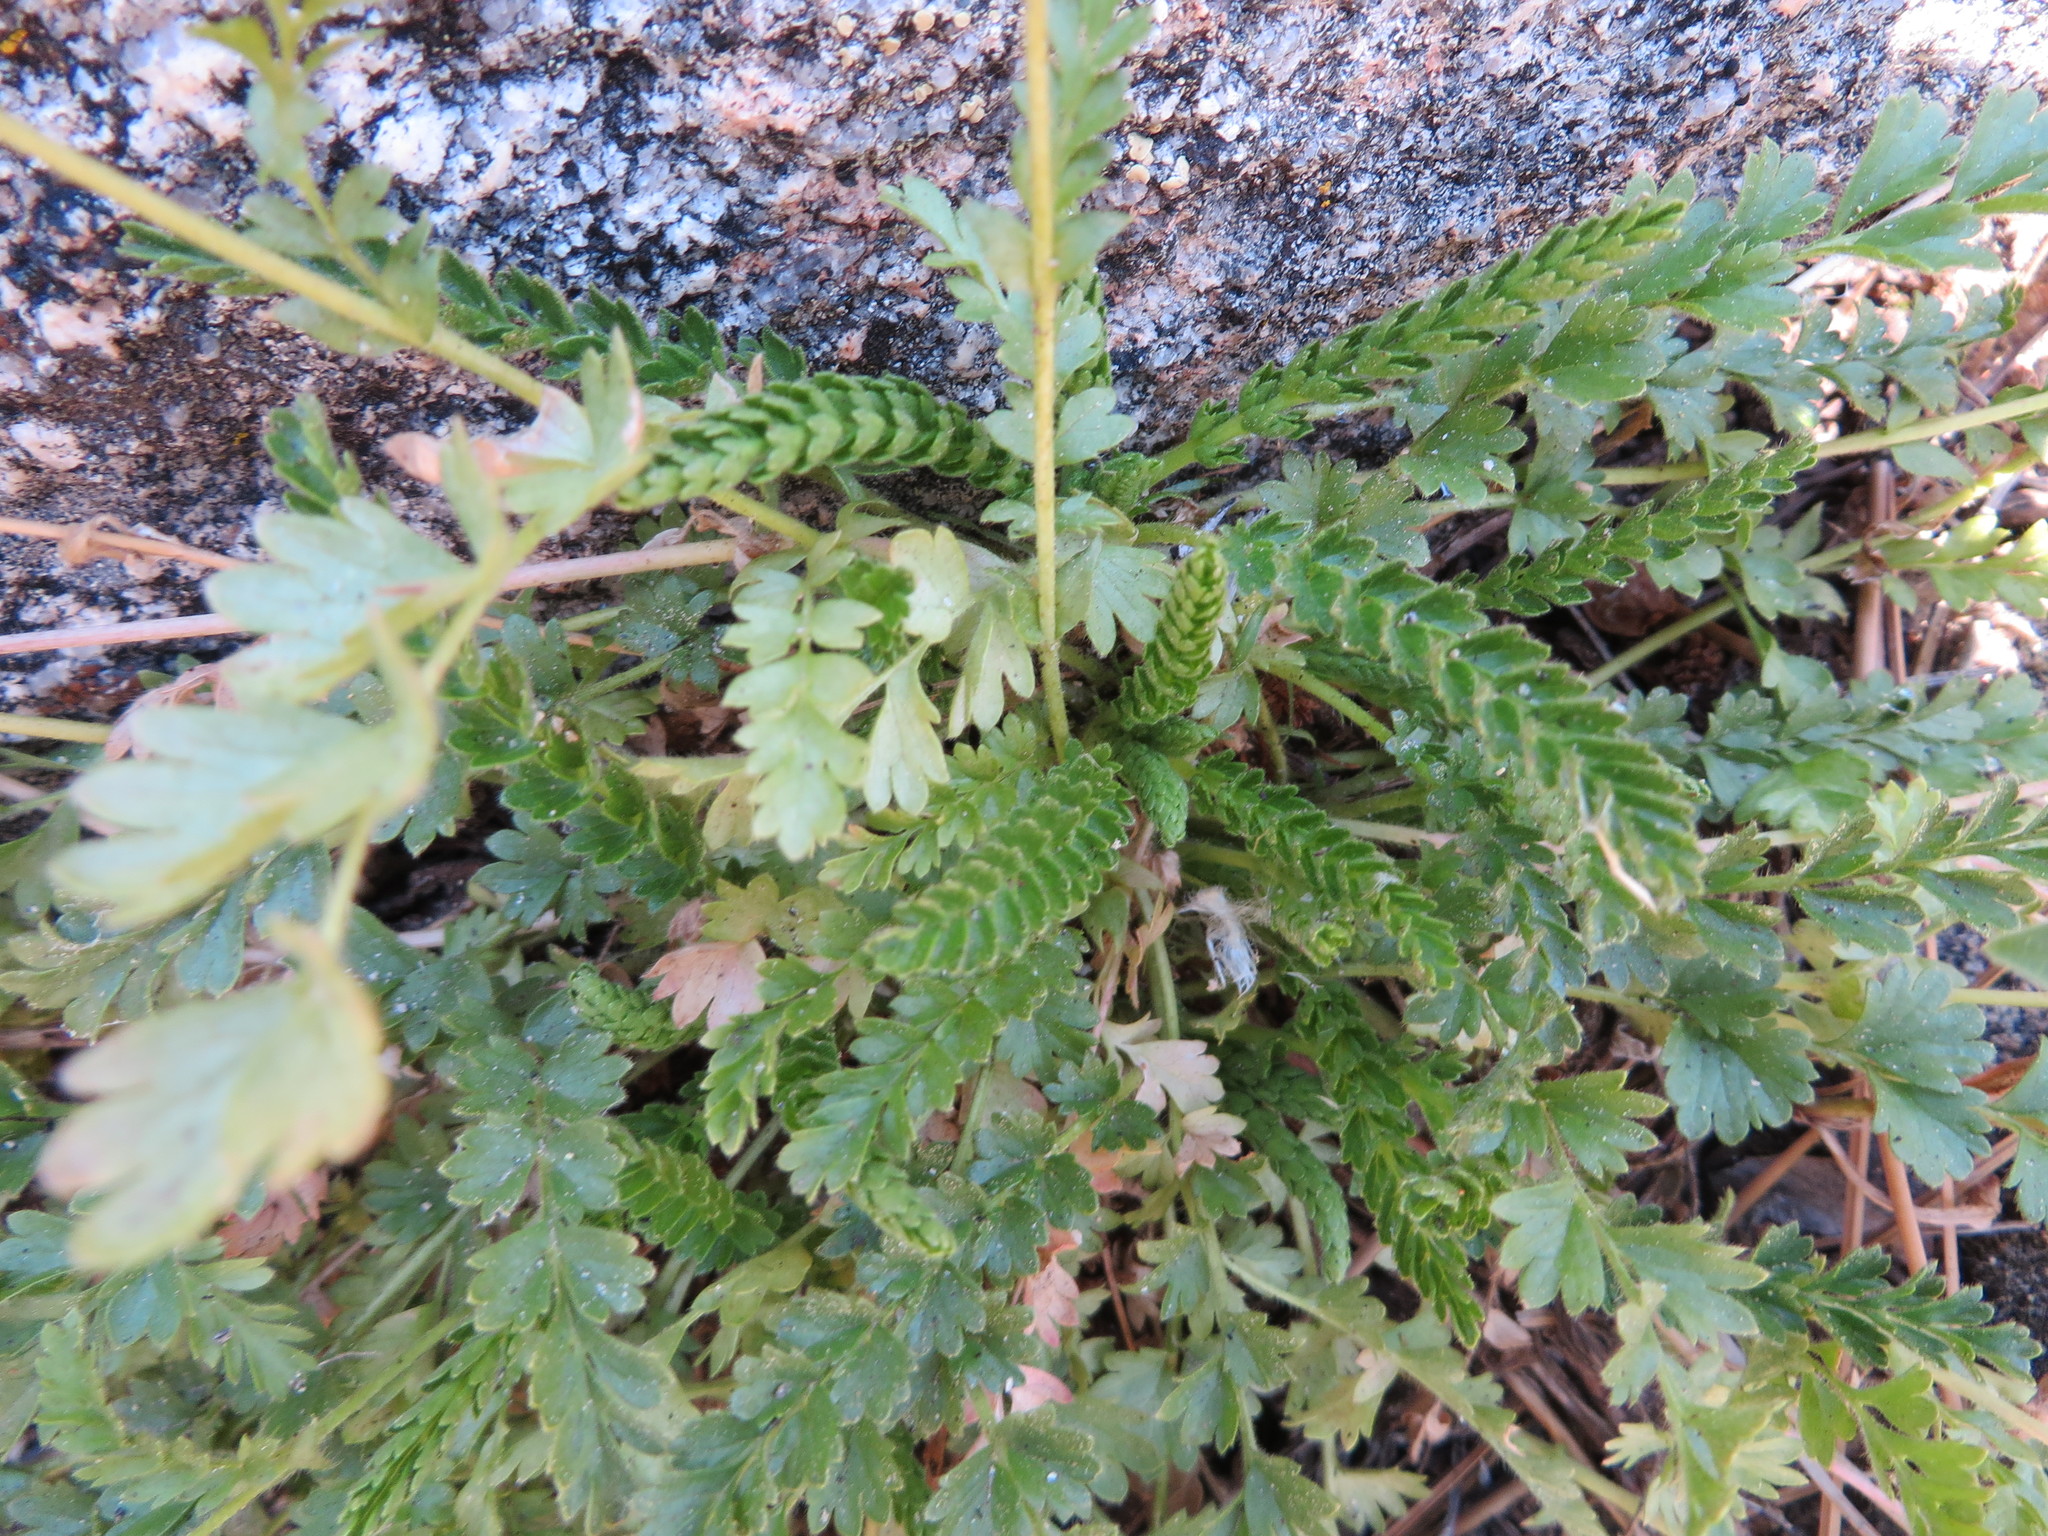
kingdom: Plantae
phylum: Tracheophyta
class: Magnoliopsida
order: Rosales
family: Rosaceae
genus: Potentilla
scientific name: Potentilla clevelandii
